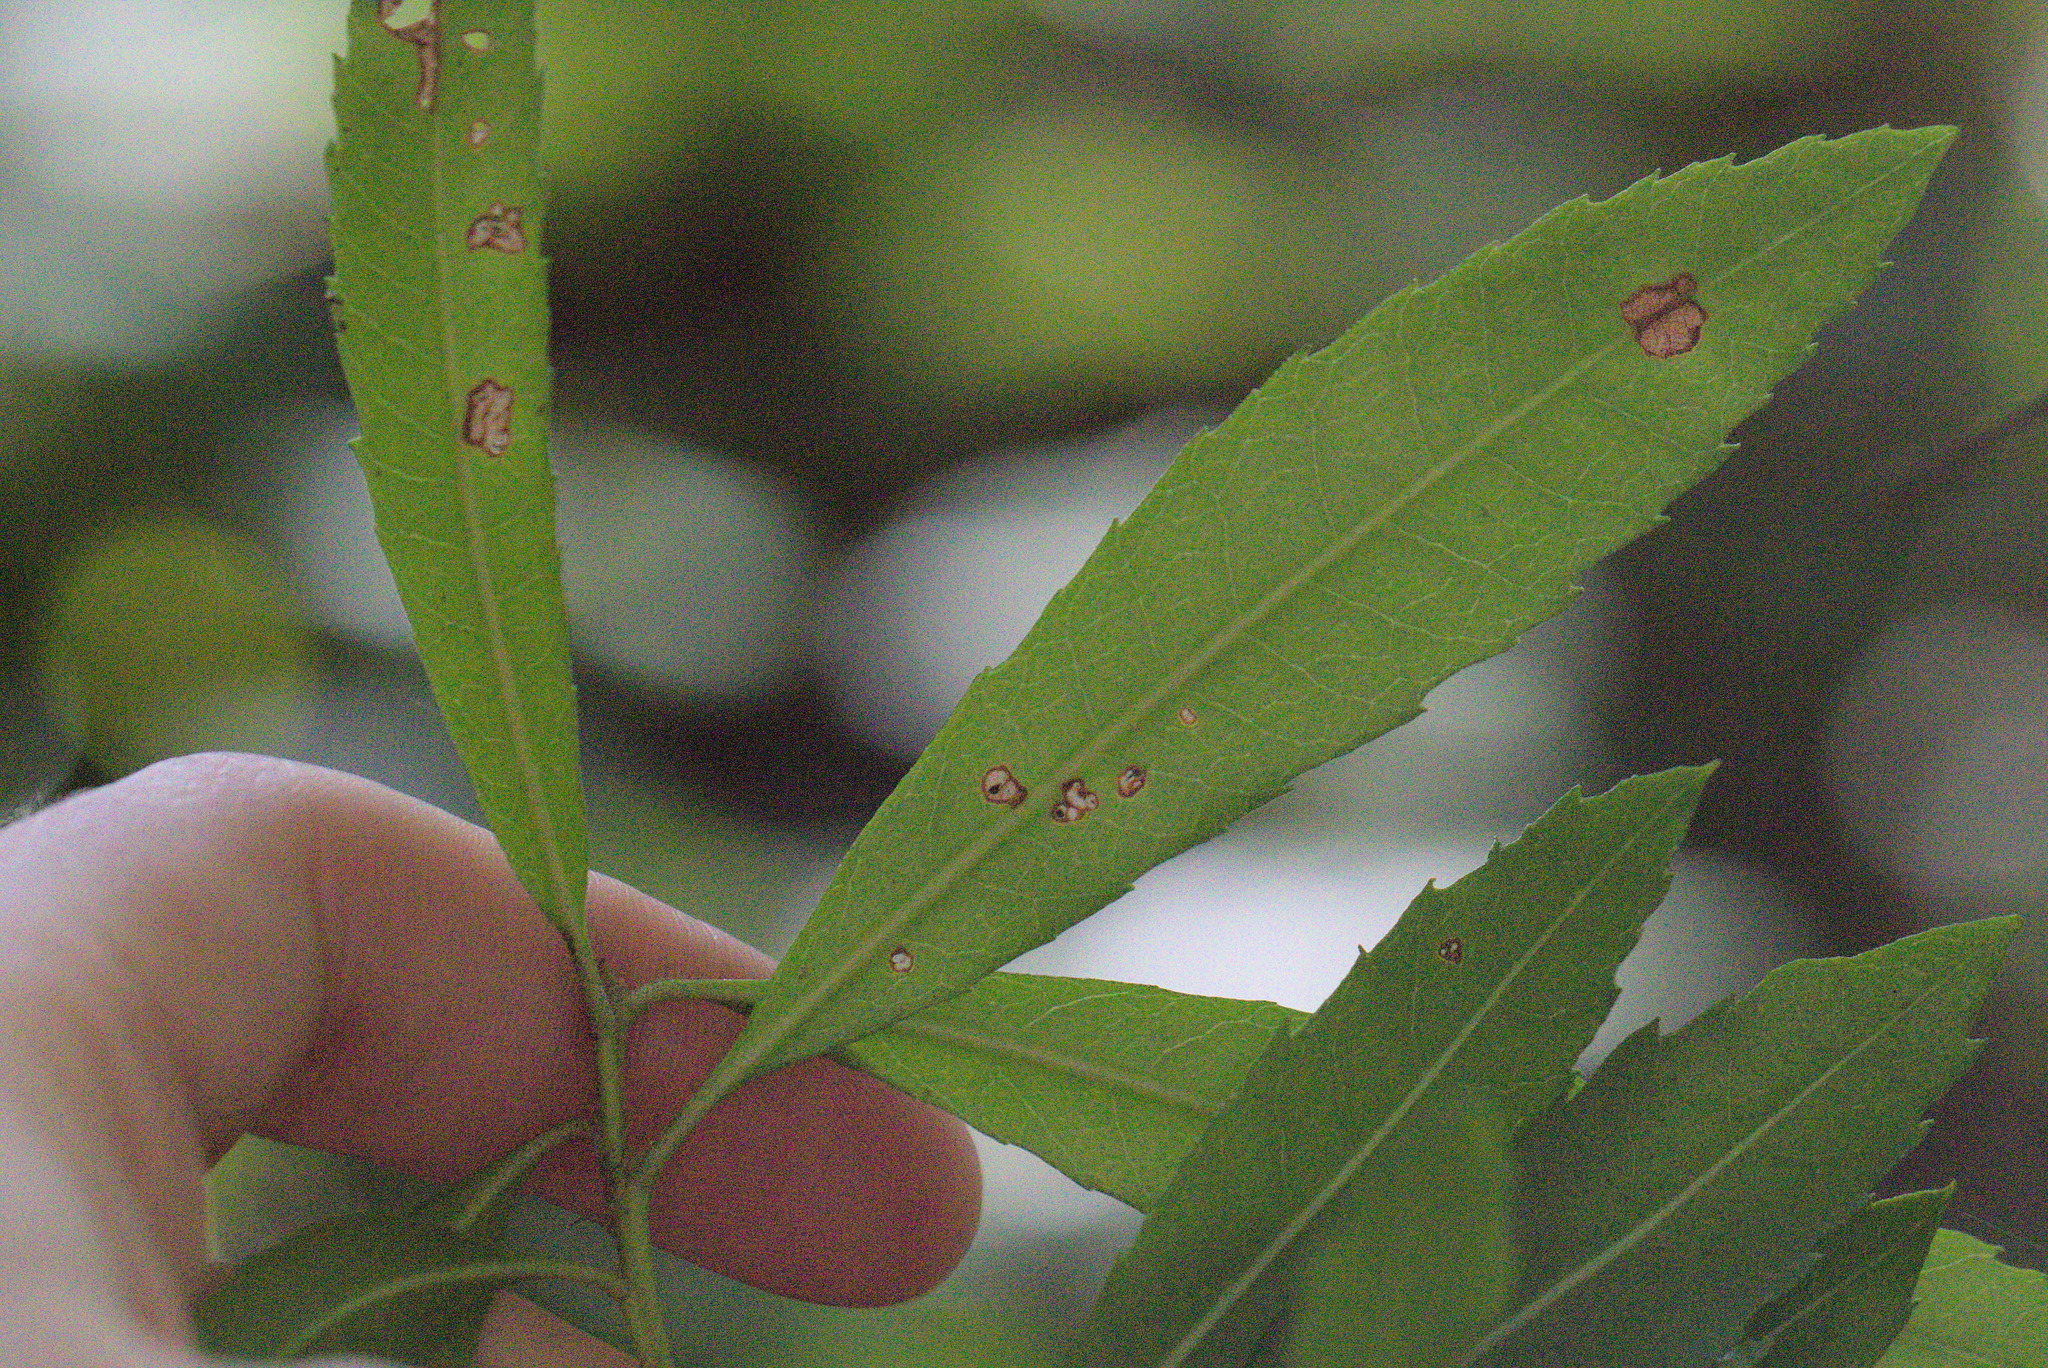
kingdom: Plantae
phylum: Tracheophyta
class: Magnoliopsida
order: Fagales
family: Myricaceae
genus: Morella
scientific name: Morella californica
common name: California wax-myrtle
